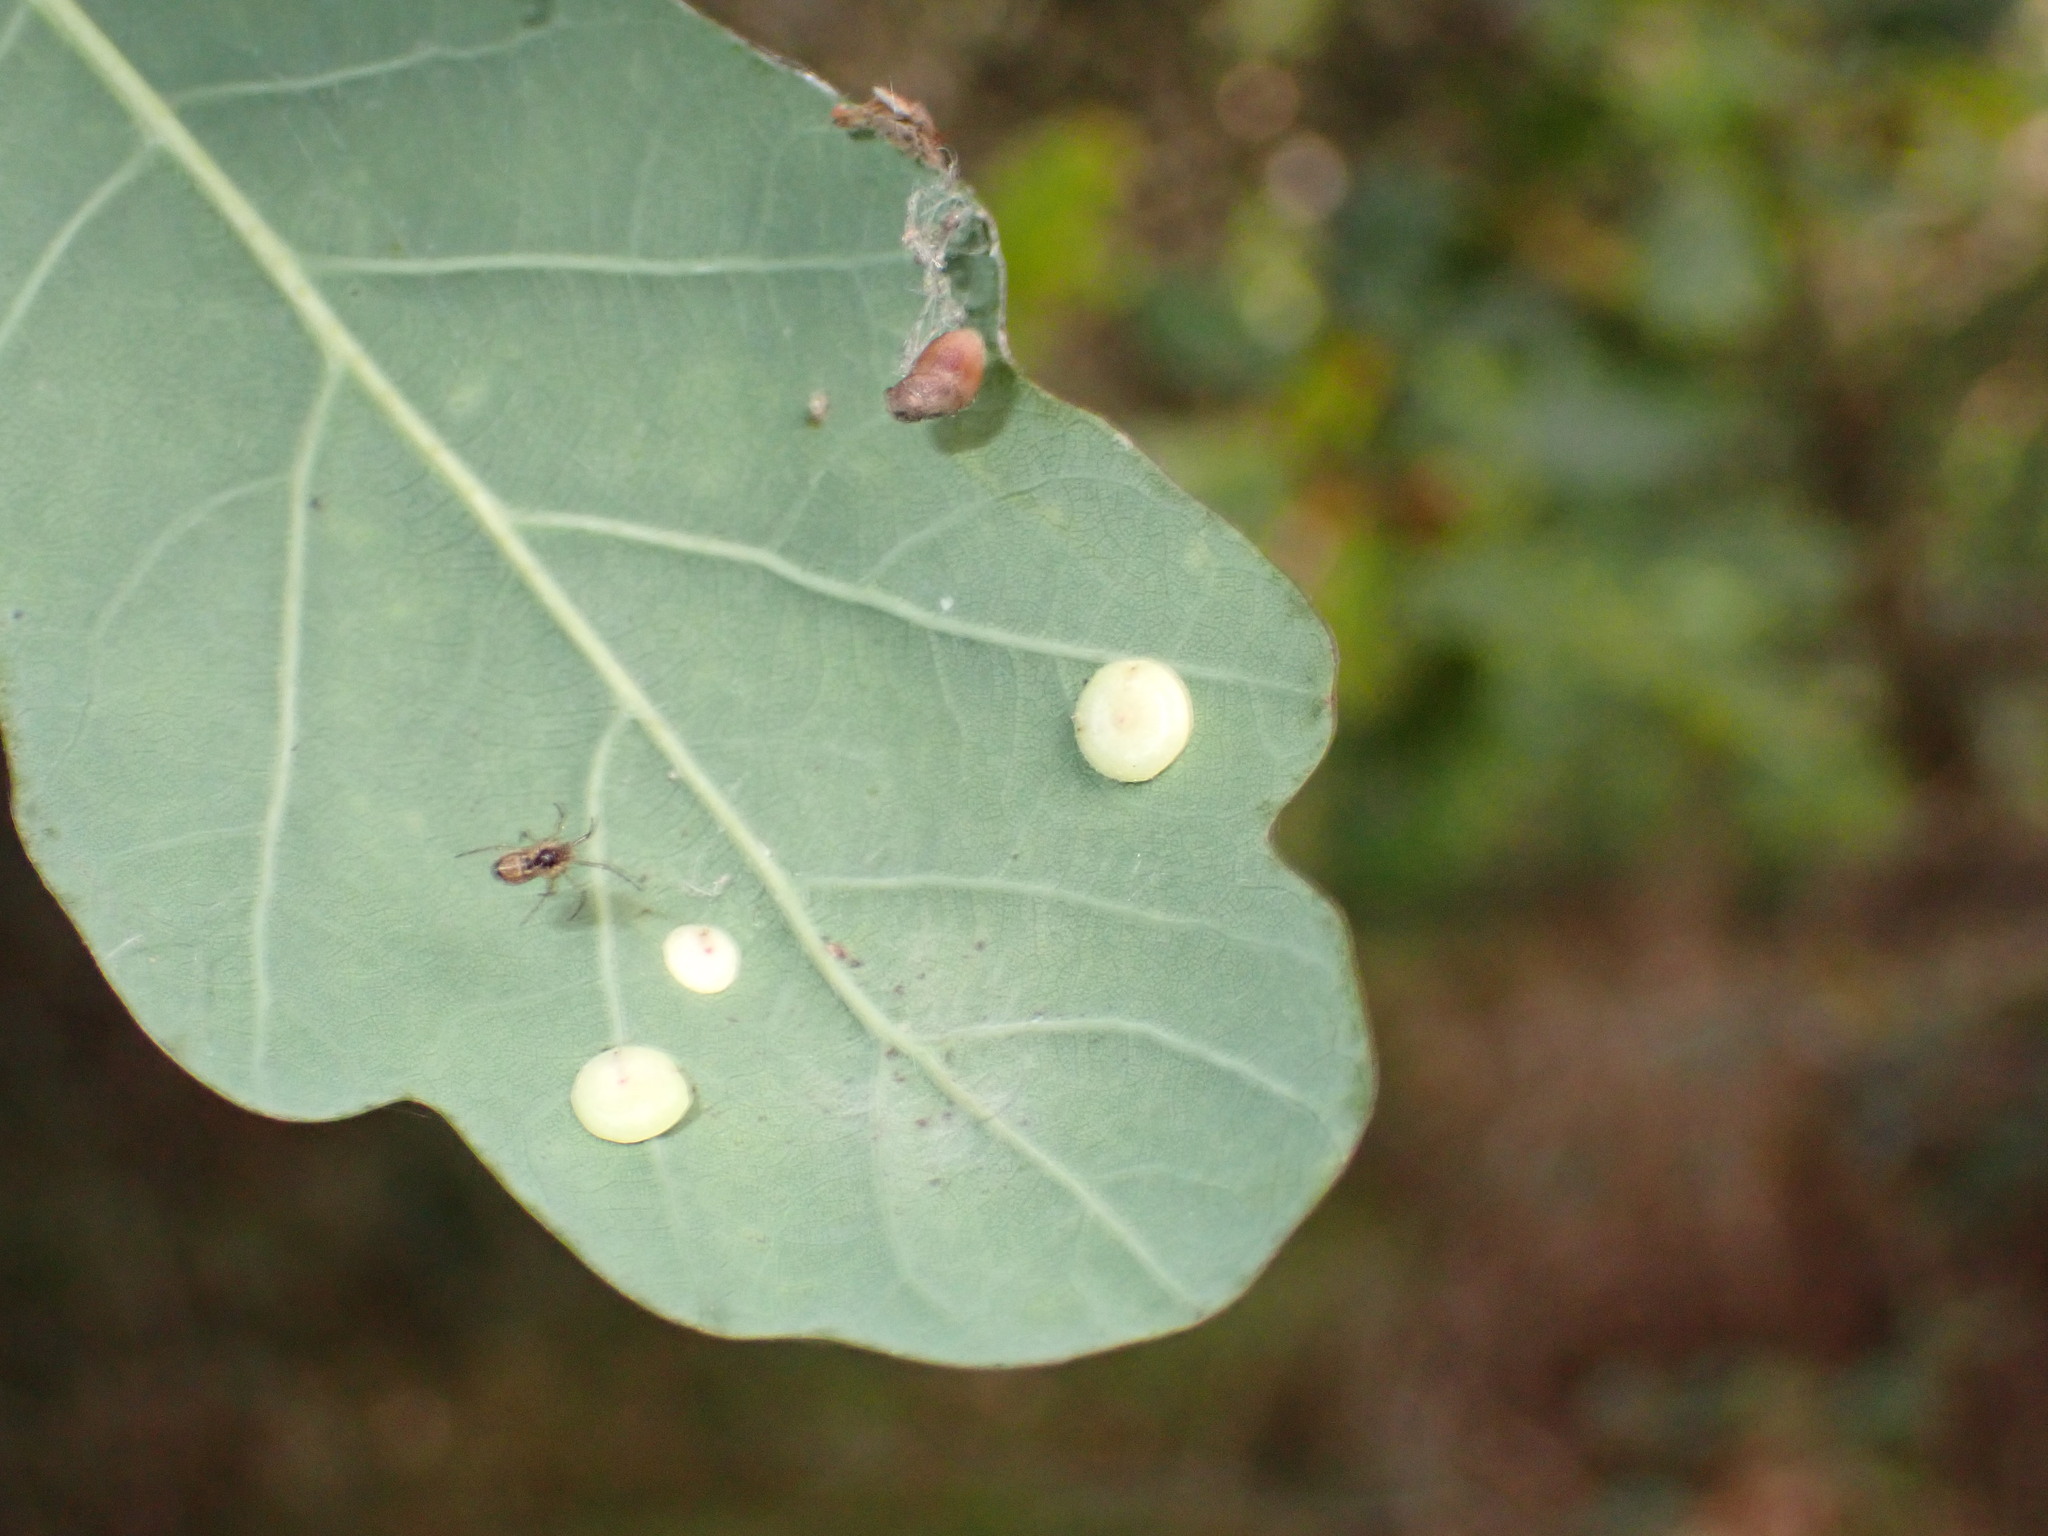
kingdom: Animalia
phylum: Arthropoda
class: Insecta
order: Hymenoptera
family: Cynipidae
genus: Neuroterus
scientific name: Neuroterus albipes
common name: Smooth spangle gall
